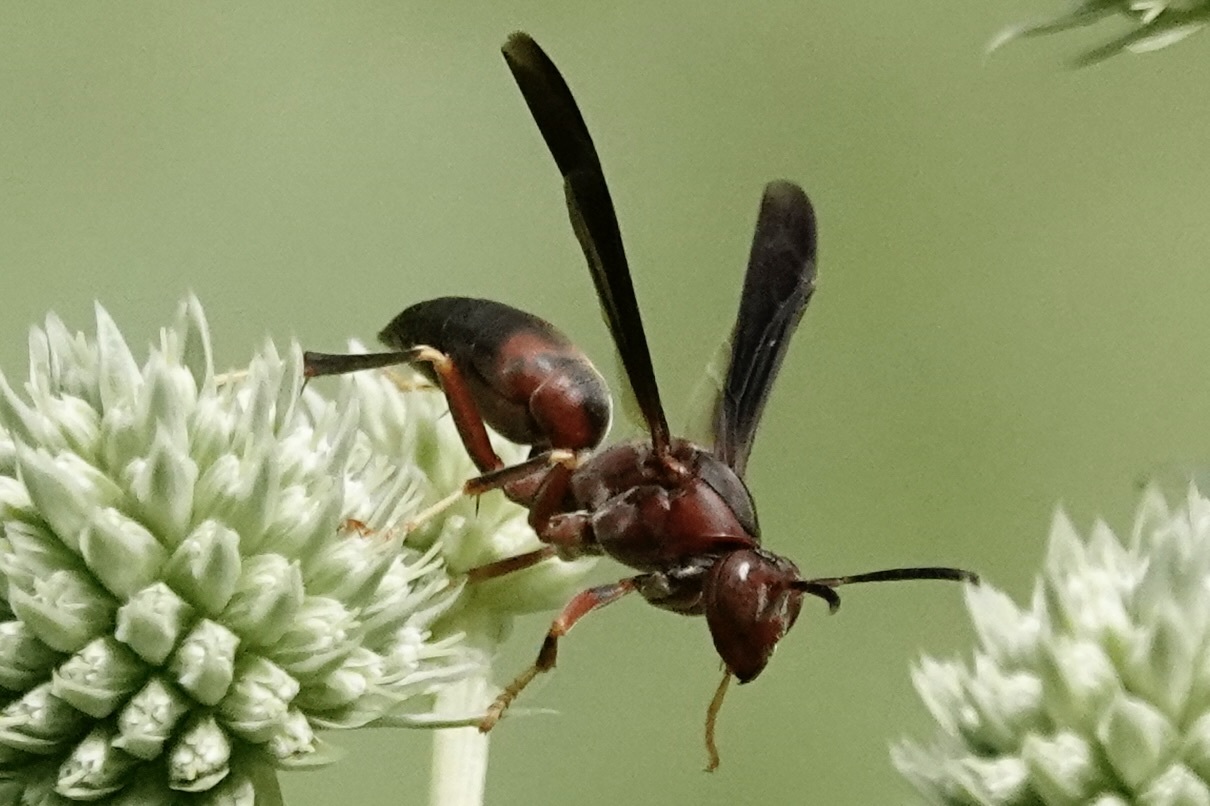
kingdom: Animalia
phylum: Arthropoda
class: Insecta
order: Hymenoptera
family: Eumenidae
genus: Polistes
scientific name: Polistes metricus
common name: Metric paper wasp
